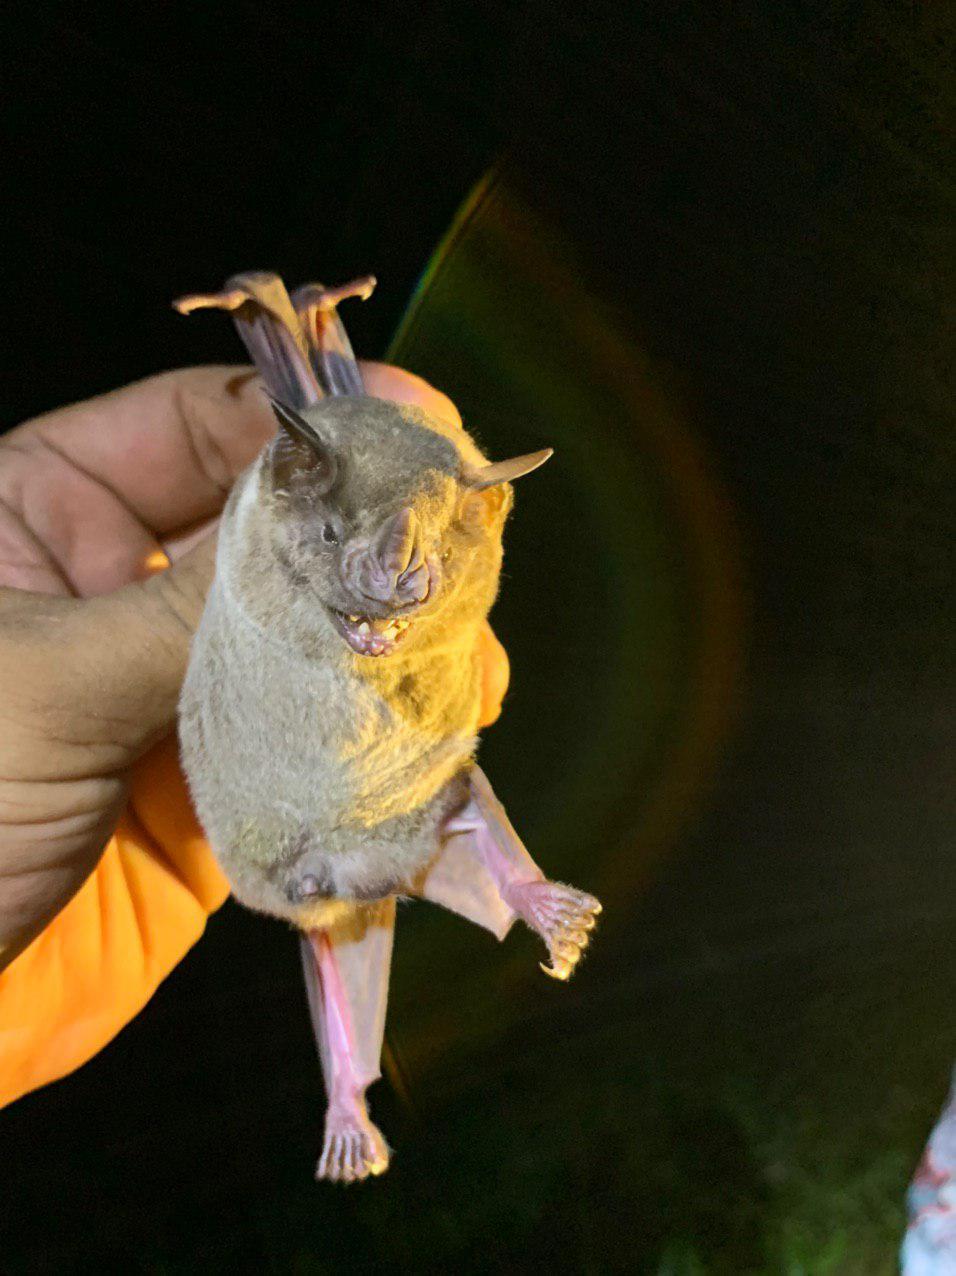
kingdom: Animalia
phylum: Chordata
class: Mammalia
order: Chiroptera
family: Phyllostomidae
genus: Artibeus
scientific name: Artibeus jamaicensis
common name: Jamaican fruit-eating bat
